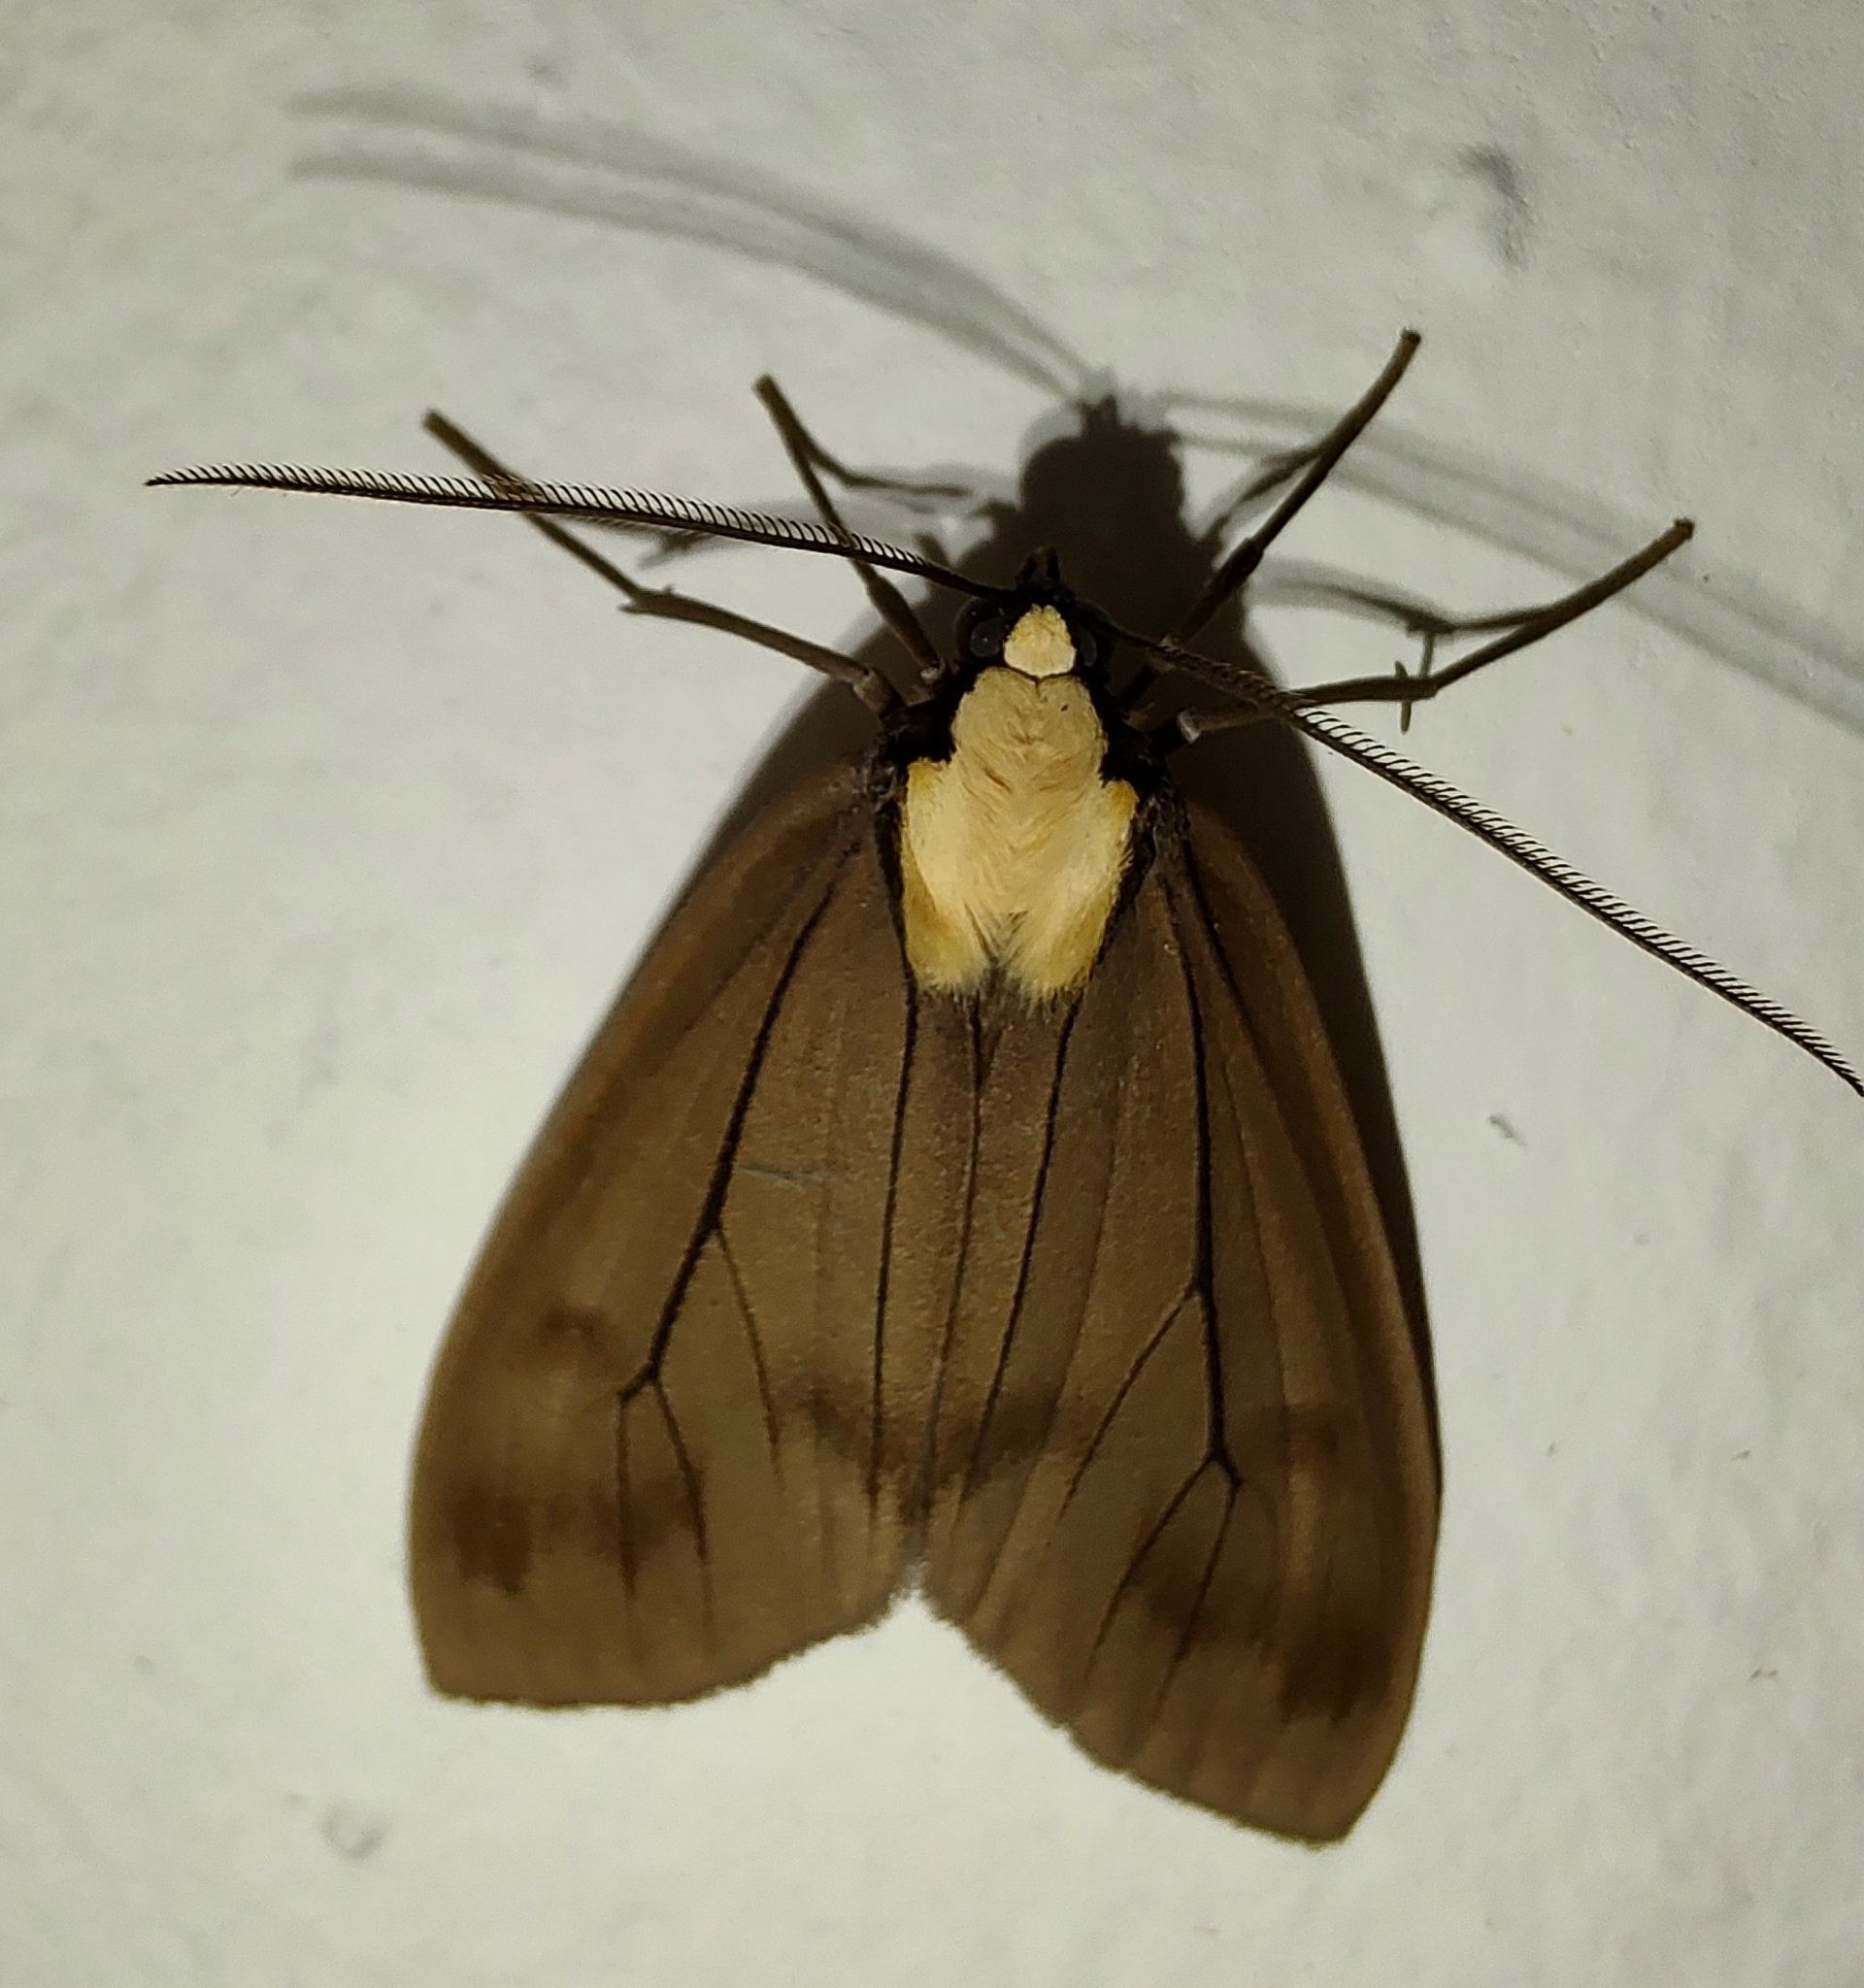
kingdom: Animalia
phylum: Arthropoda
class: Insecta
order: Lepidoptera
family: Erebidae
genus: Opharus
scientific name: Opharus basalis
